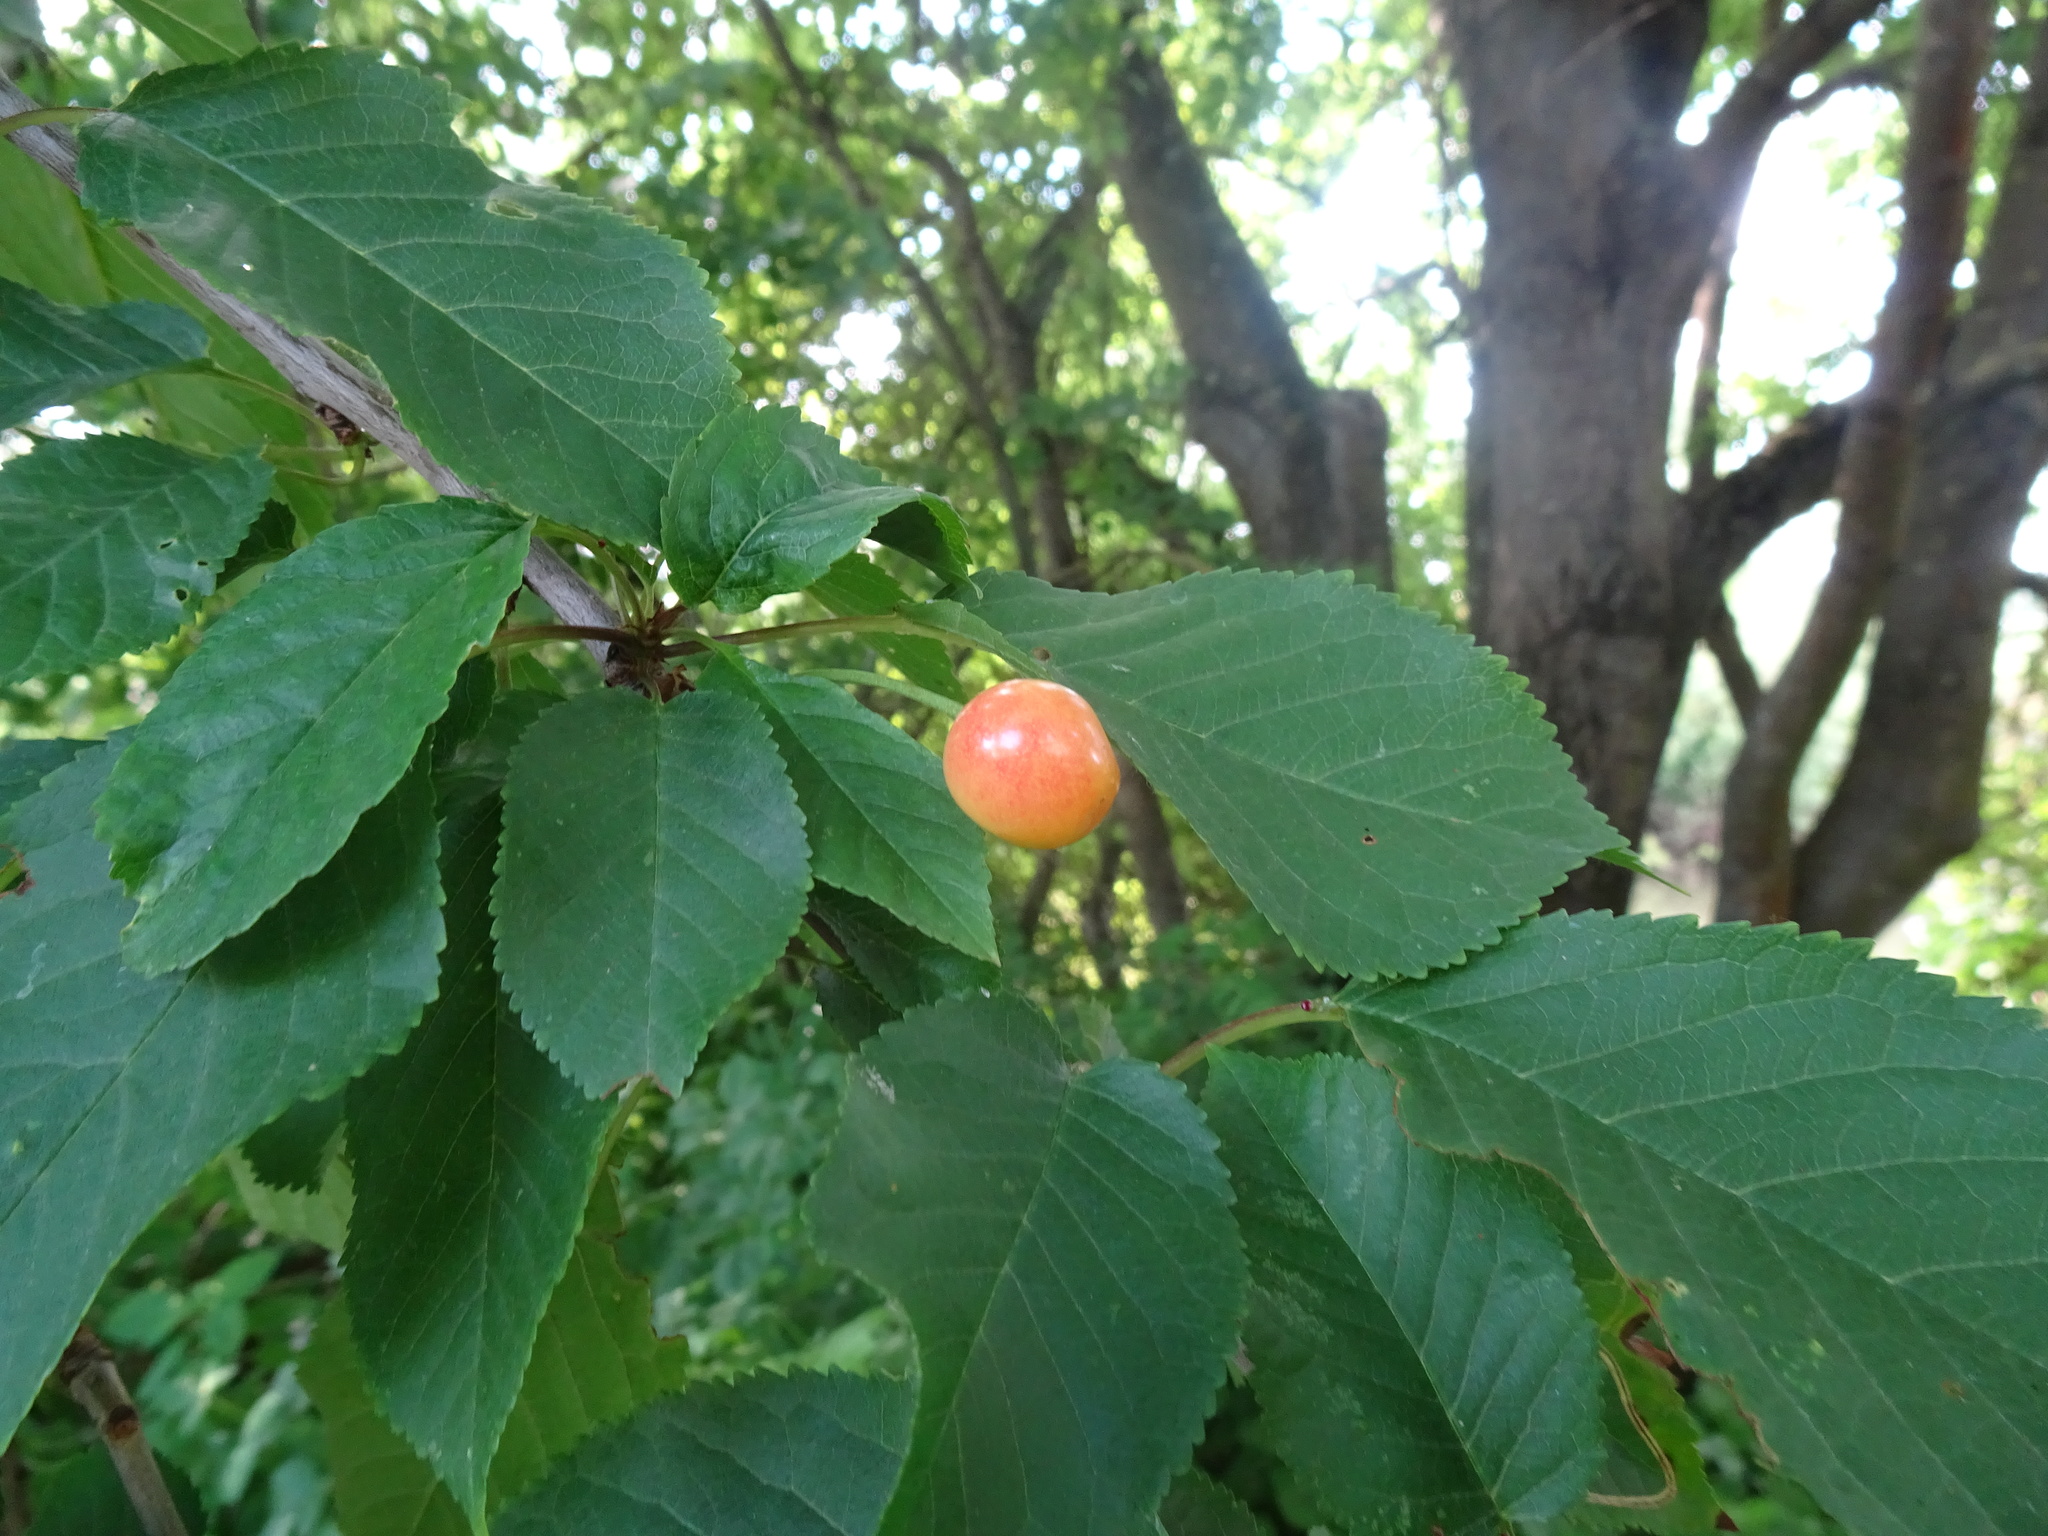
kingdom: Plantae
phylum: Tracheophyta
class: Magnoliopsida
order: Rosales
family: Rosaceae
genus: Prunus
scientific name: Prunus avium
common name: Sweet cherry
